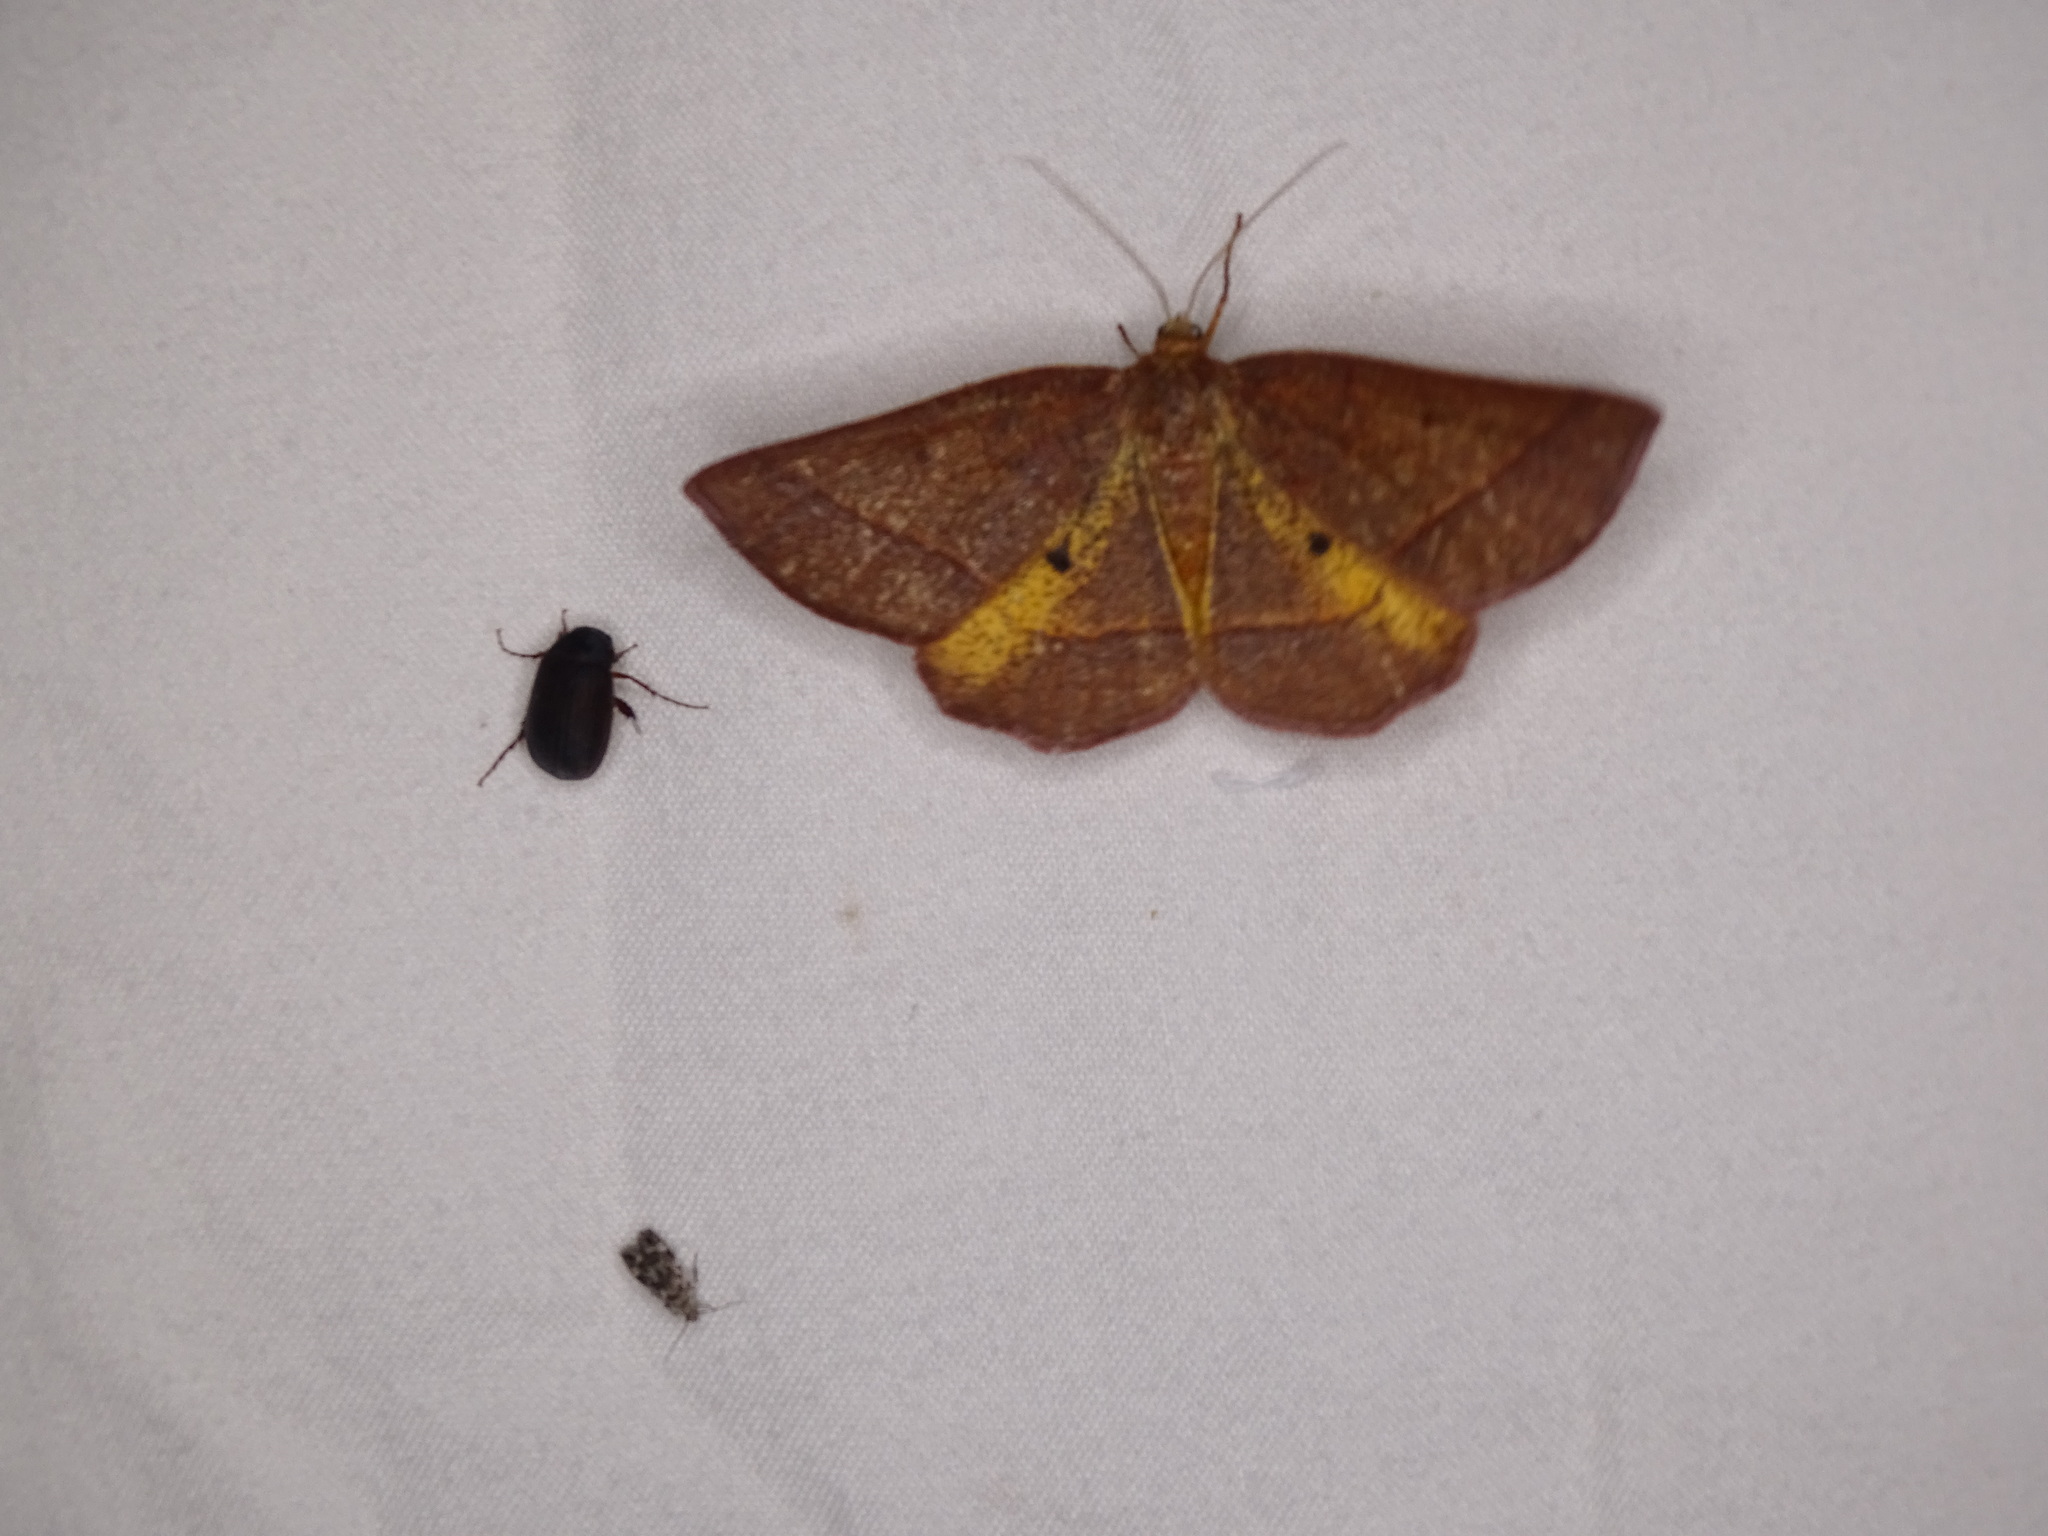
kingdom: Animalia
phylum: Arthropoda
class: Insecta
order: Lepidoptera
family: Geometridae
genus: Metarranthis
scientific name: Metarranthis obfirmaria
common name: Yellow-washed metarranthis
